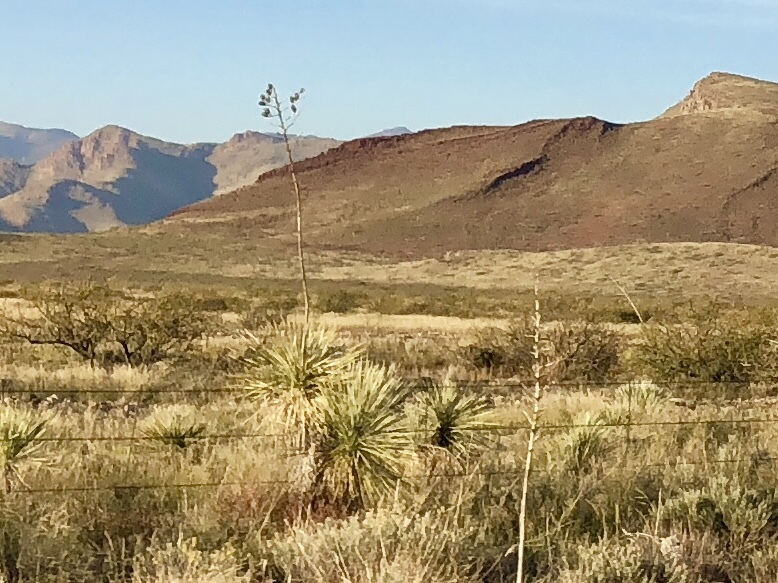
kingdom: Plantae
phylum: Tracheophyta
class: Liliopsida
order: Asparagales
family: Asparagaceae
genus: Yucca
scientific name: Yucca elata
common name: Palmella
